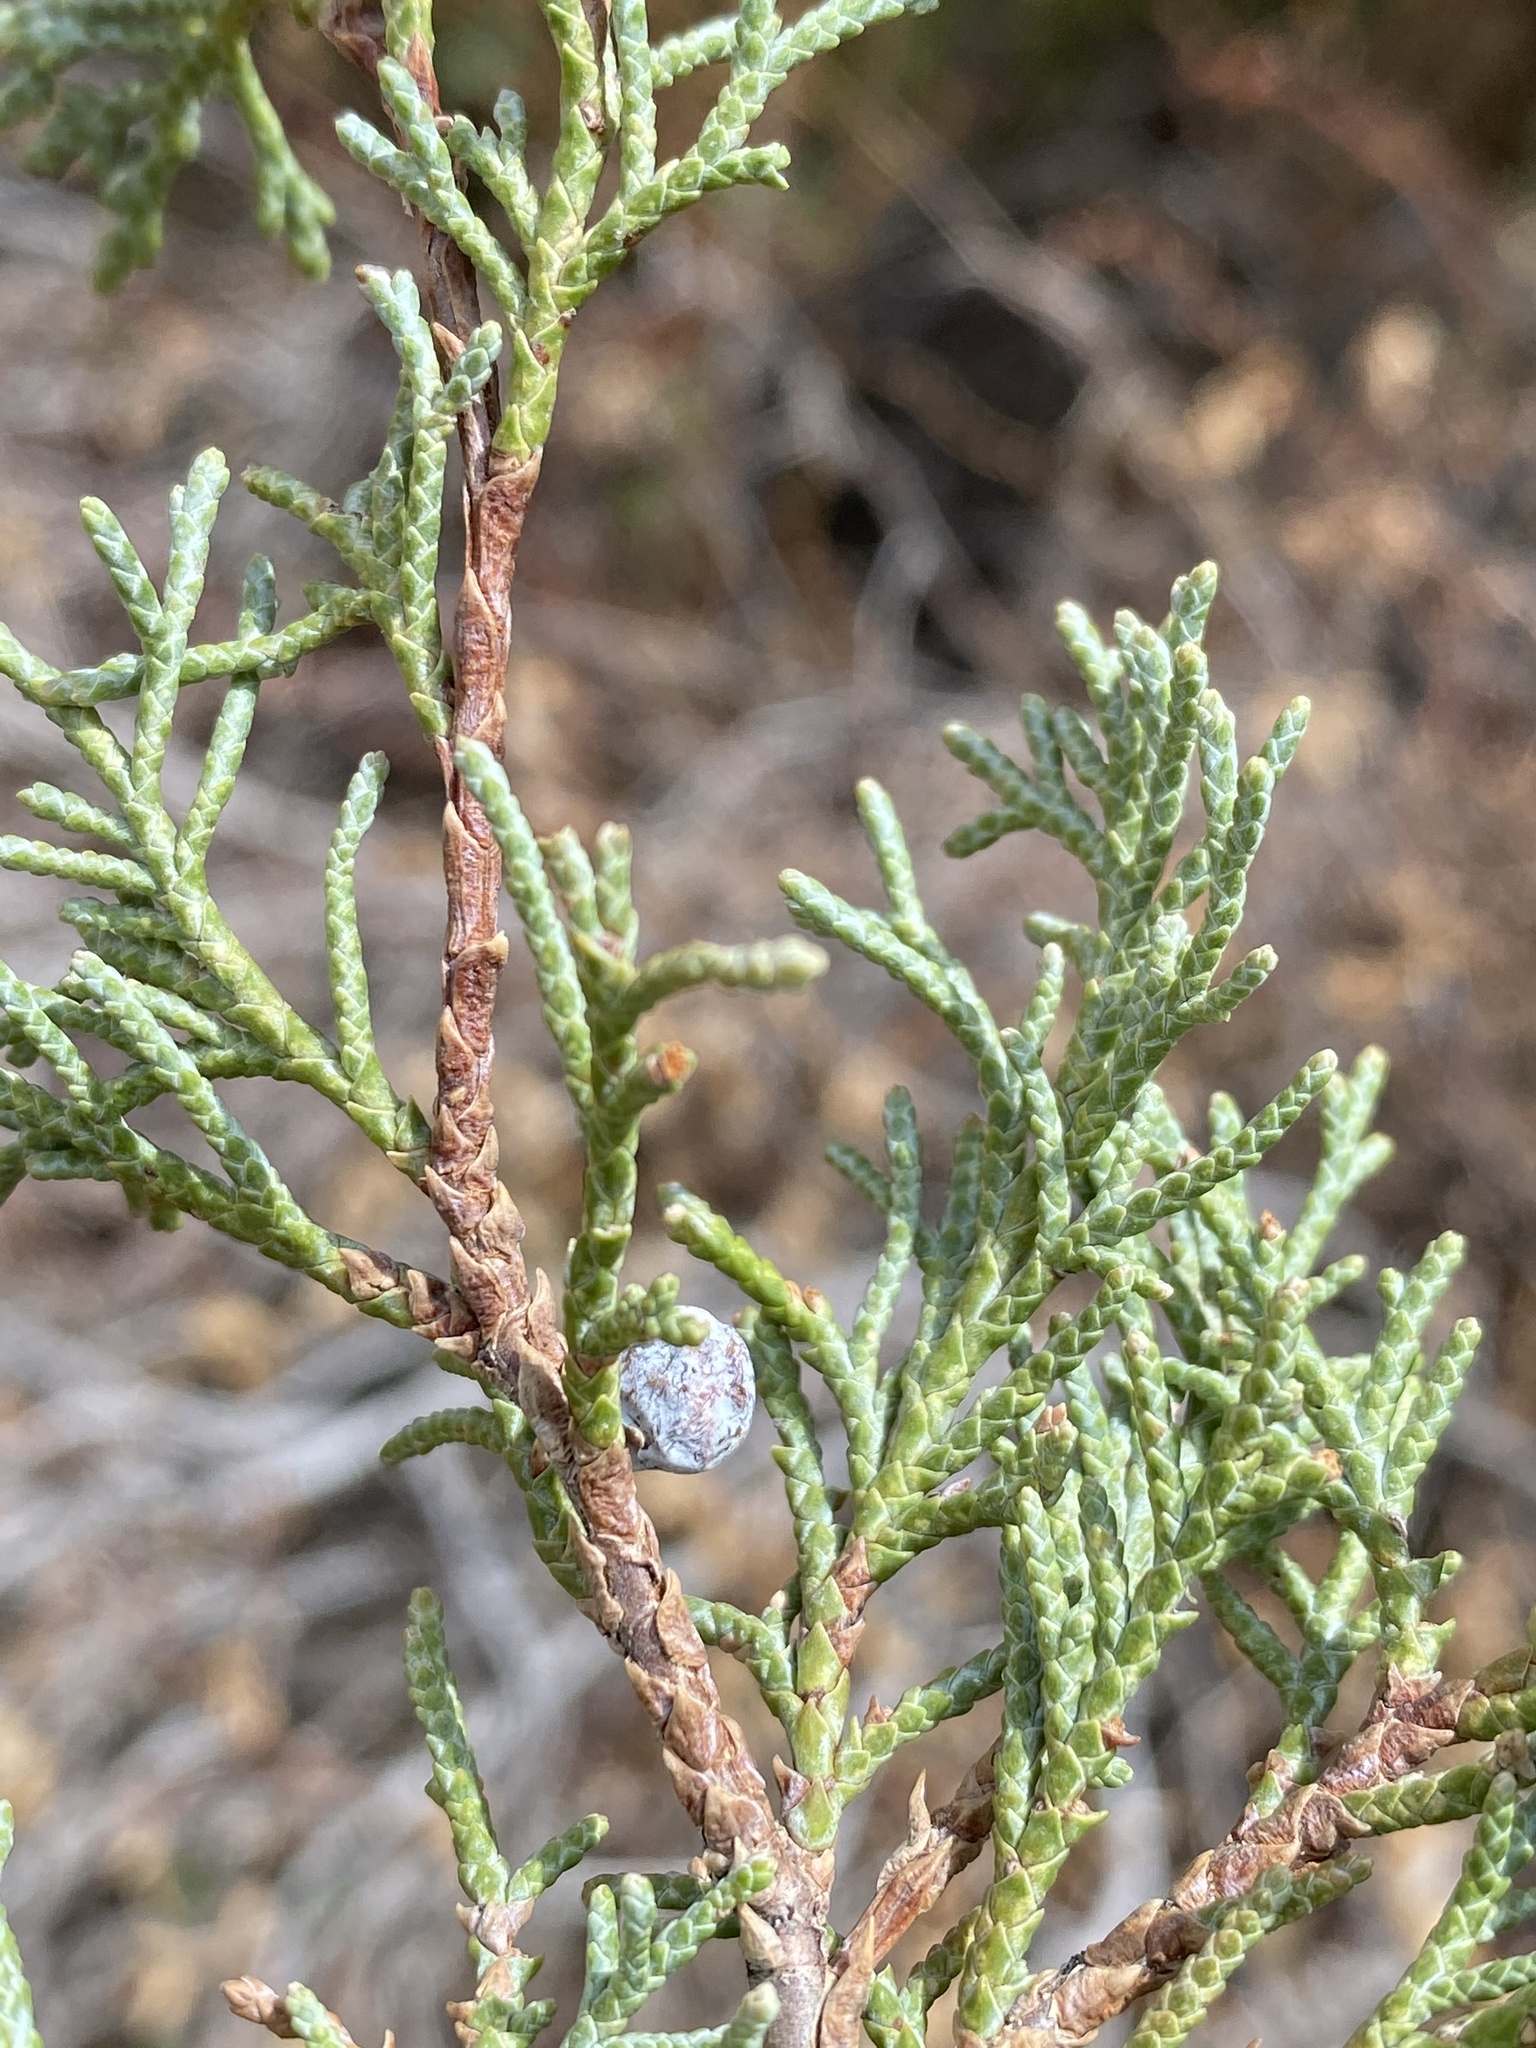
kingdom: Plantae
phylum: Tracheophyta
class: Pinopsida
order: Pinales
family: Cupressaceae
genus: Juniperus
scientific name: Juniperus scopulorum
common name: Rocky mountain juniper
